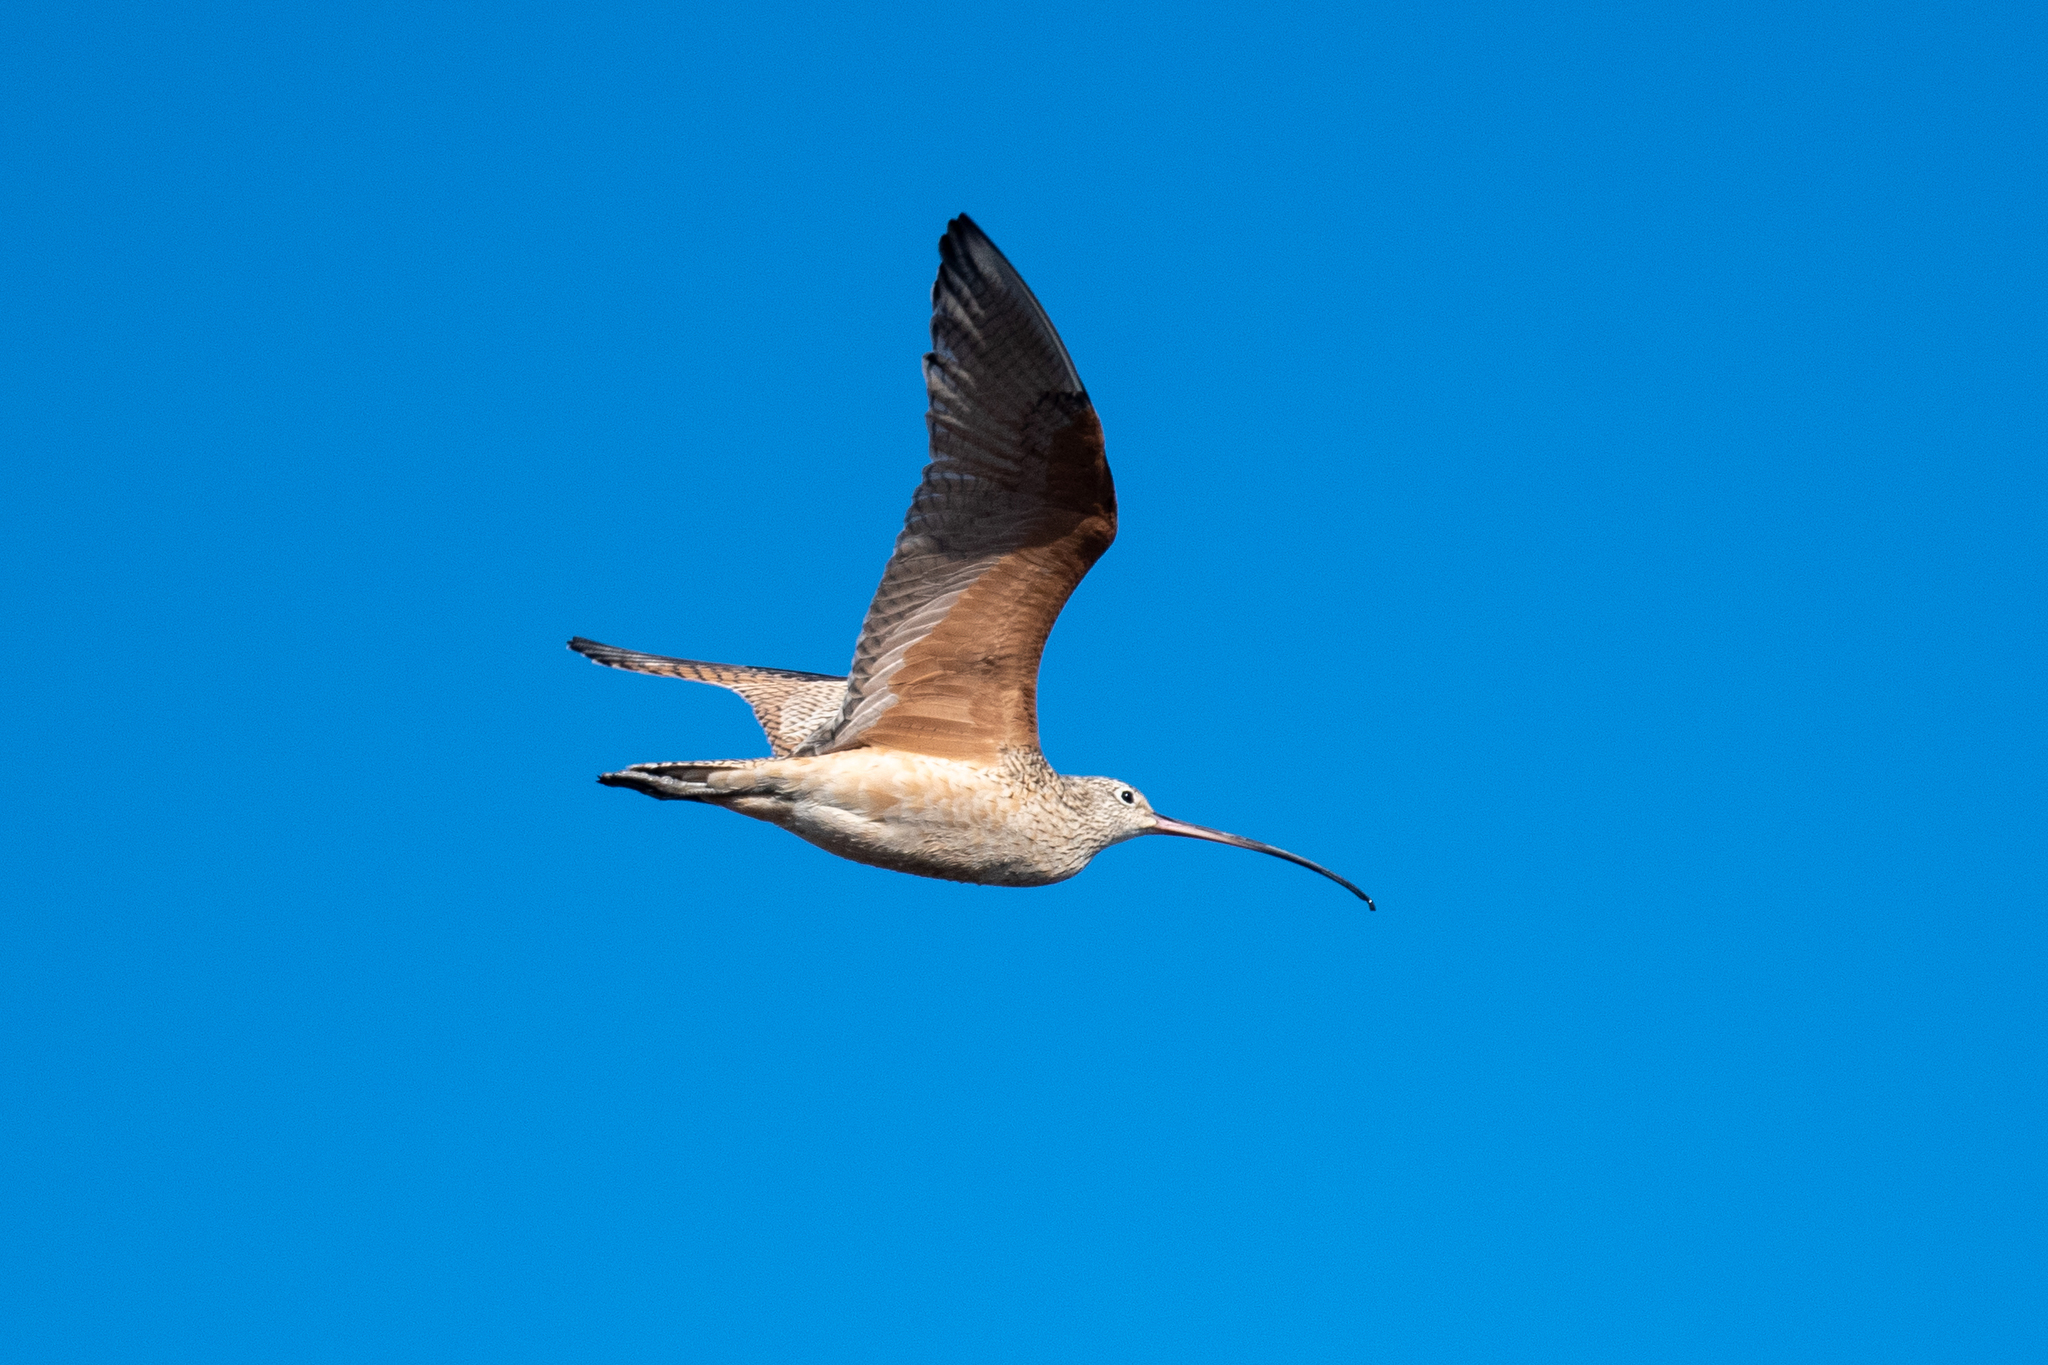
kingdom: Animalia
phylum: Chordata
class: Aves
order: Charadriiformes
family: Scolopacidae
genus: Numenius
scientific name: Numenius americanus
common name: Long-billed curlew
